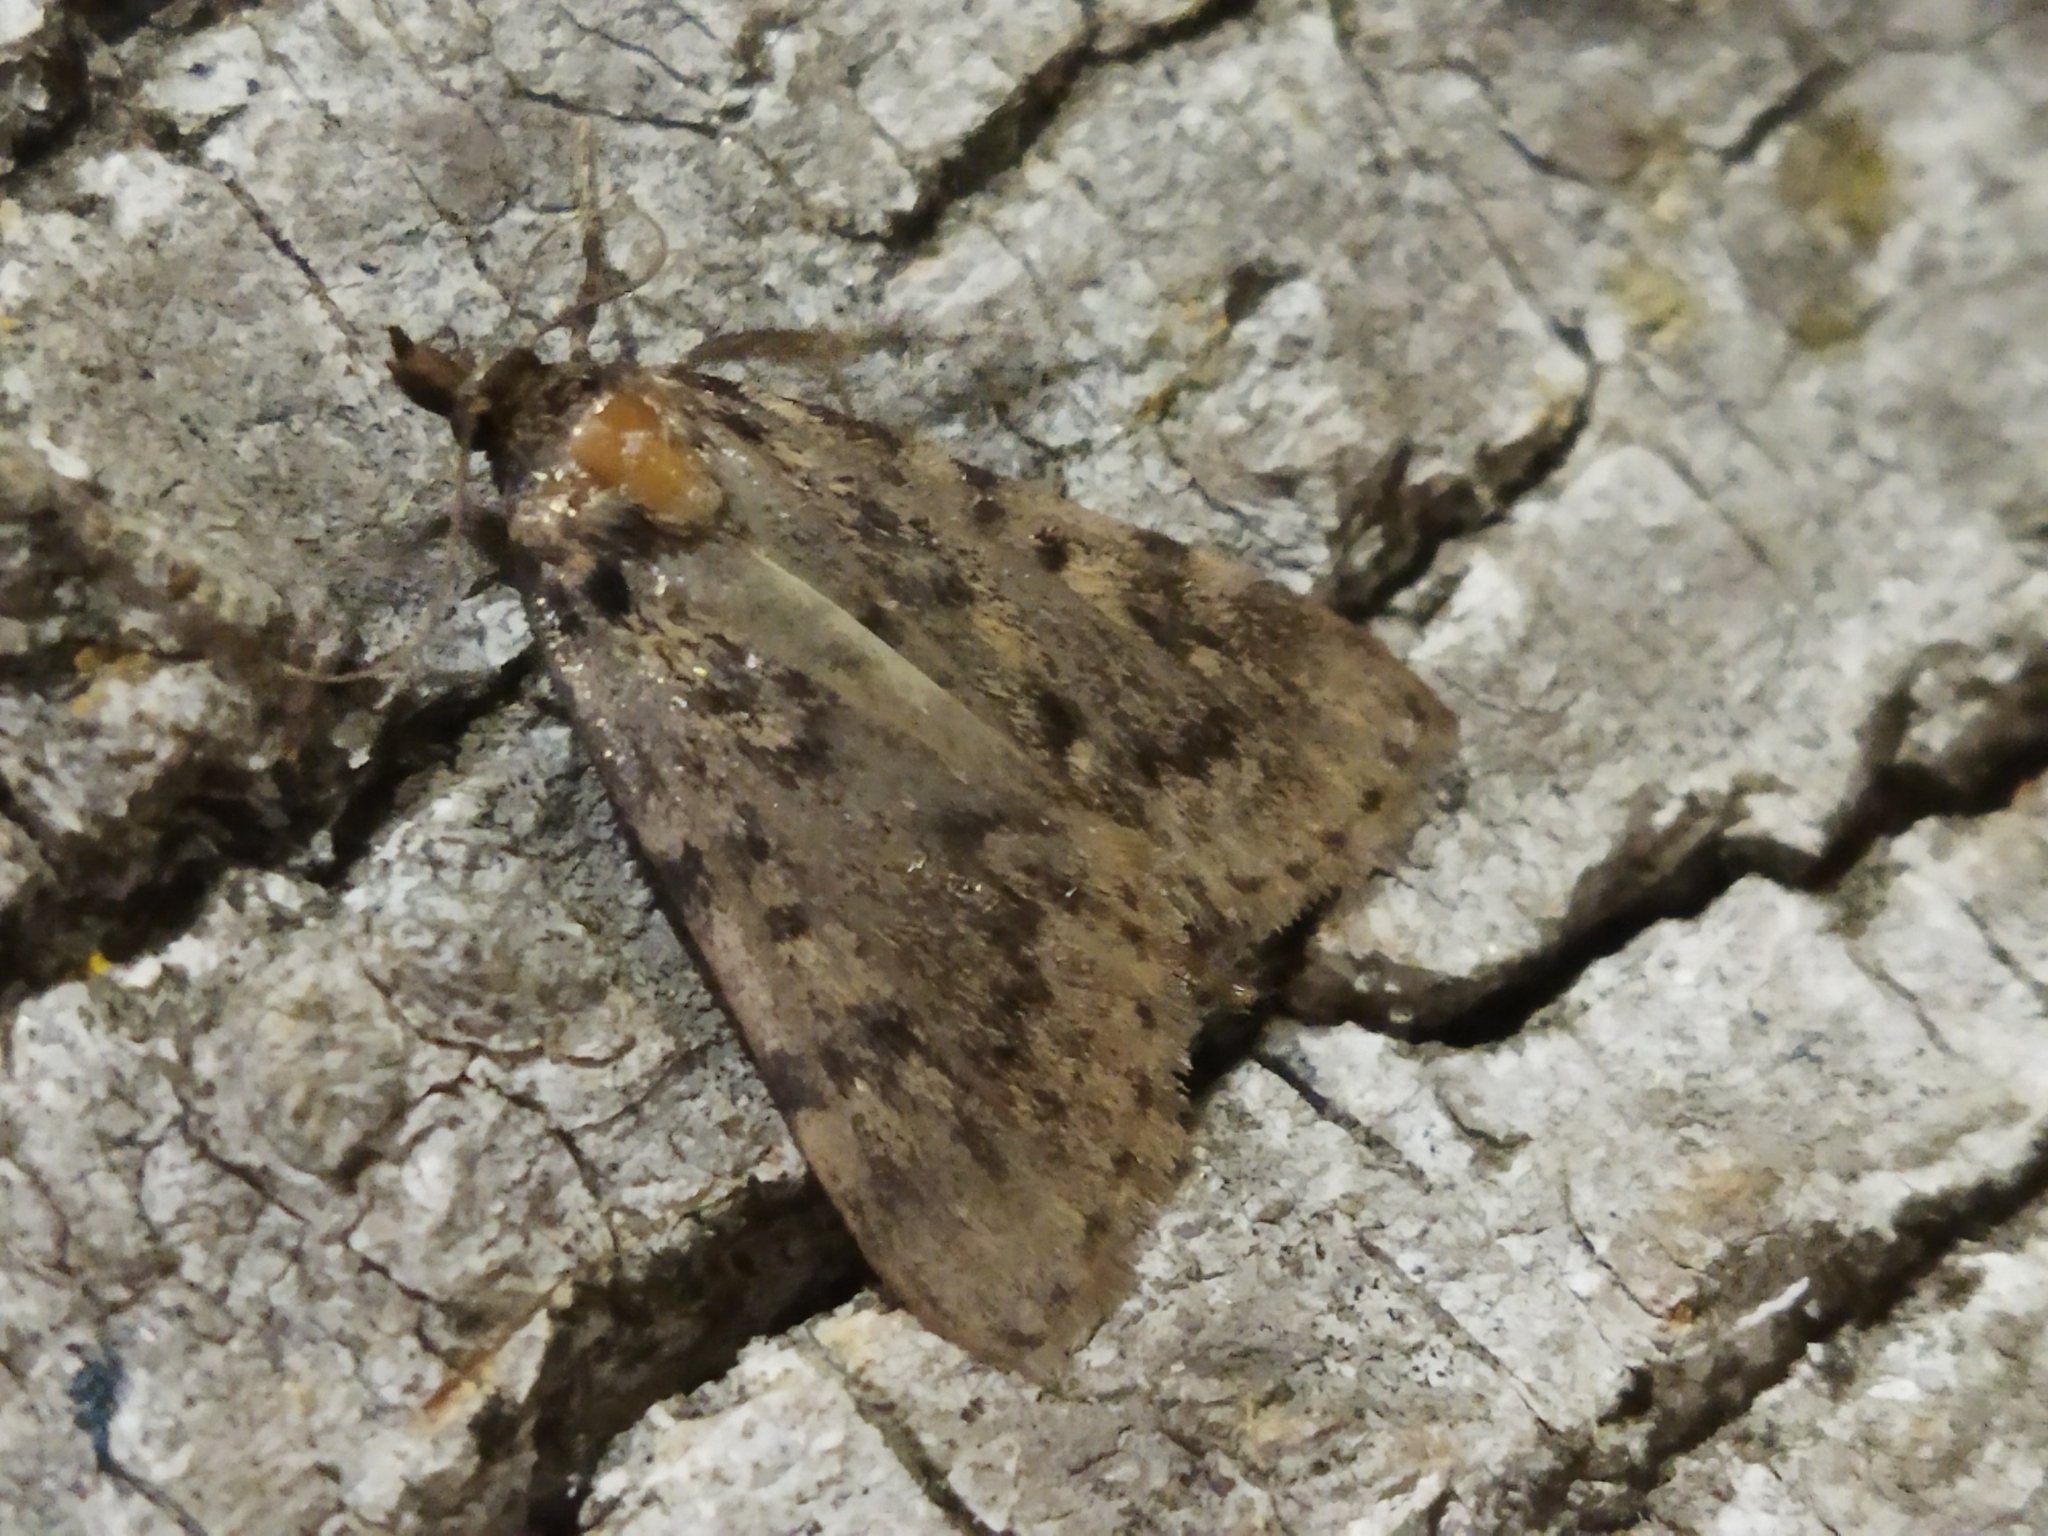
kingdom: Animalia
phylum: Arthropoda
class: Insecta
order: Lepidoptera
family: Pyralidae
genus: Aglossa
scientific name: Aglossa pinguinalis
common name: Large tabby
